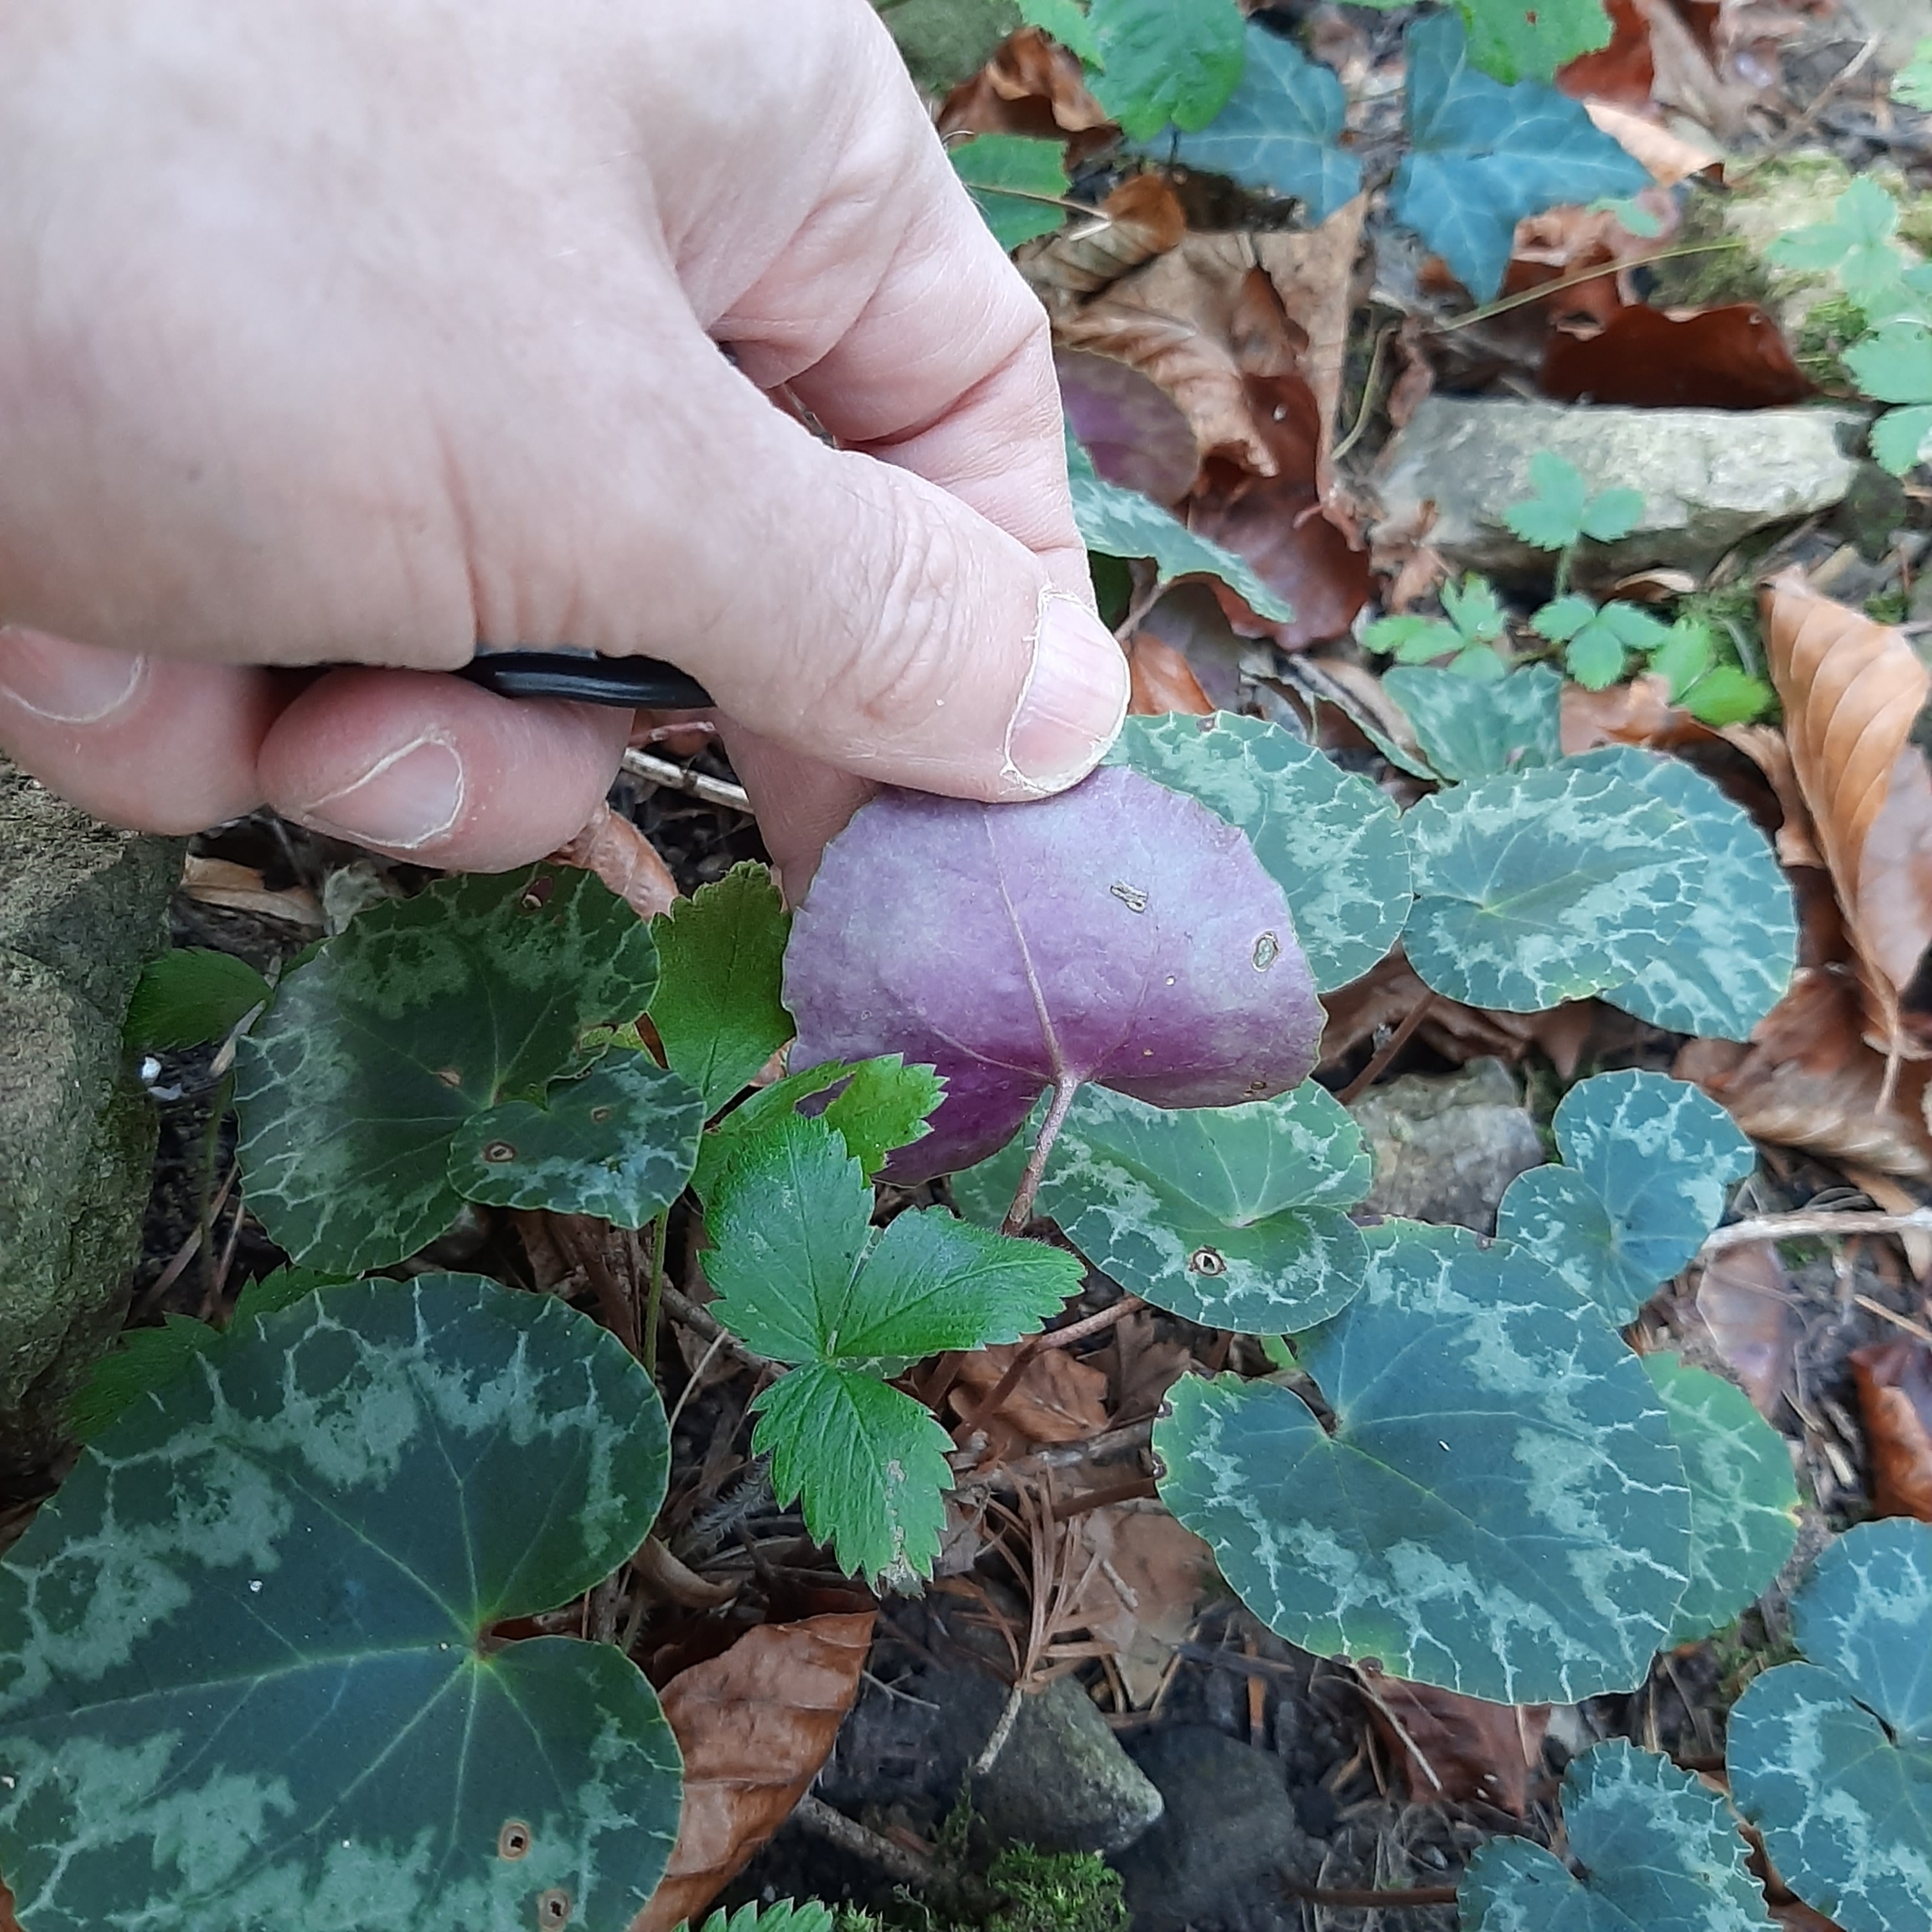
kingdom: Plantae
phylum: Tracheophyta
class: Magnoliopsida
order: Ericales
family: Primulaceae
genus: Cyclamen
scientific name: Cyclamen purpurascens
